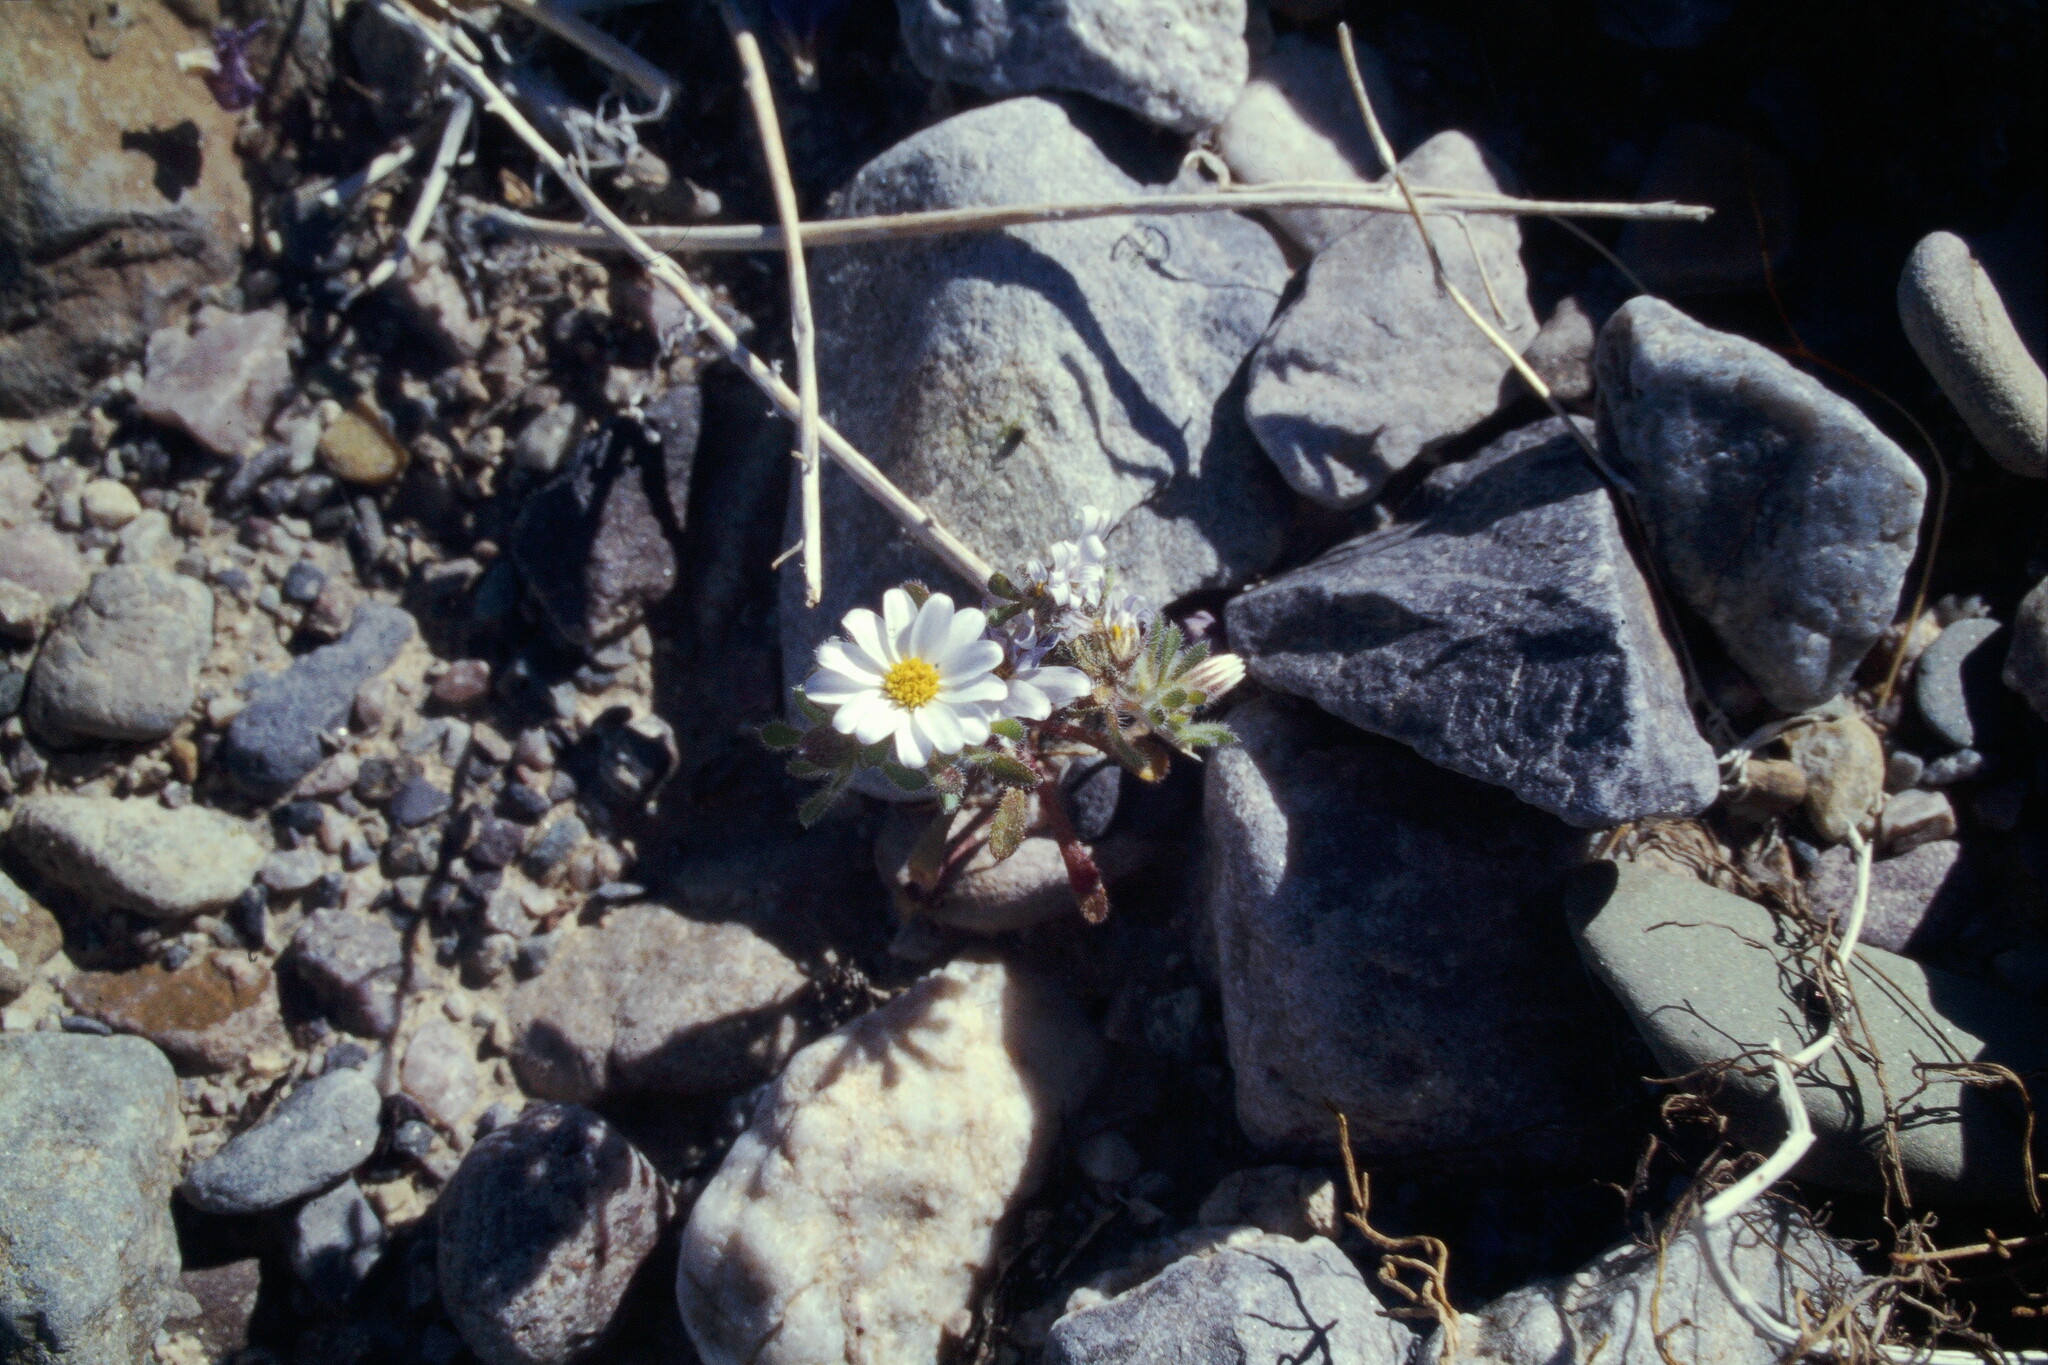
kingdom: Plantae
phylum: Tracheophyta
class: Magnoliopsida
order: Asterales
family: Asteraceae
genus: Monoptilon
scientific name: Monoptilon bellioides
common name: Bristly desertstar
